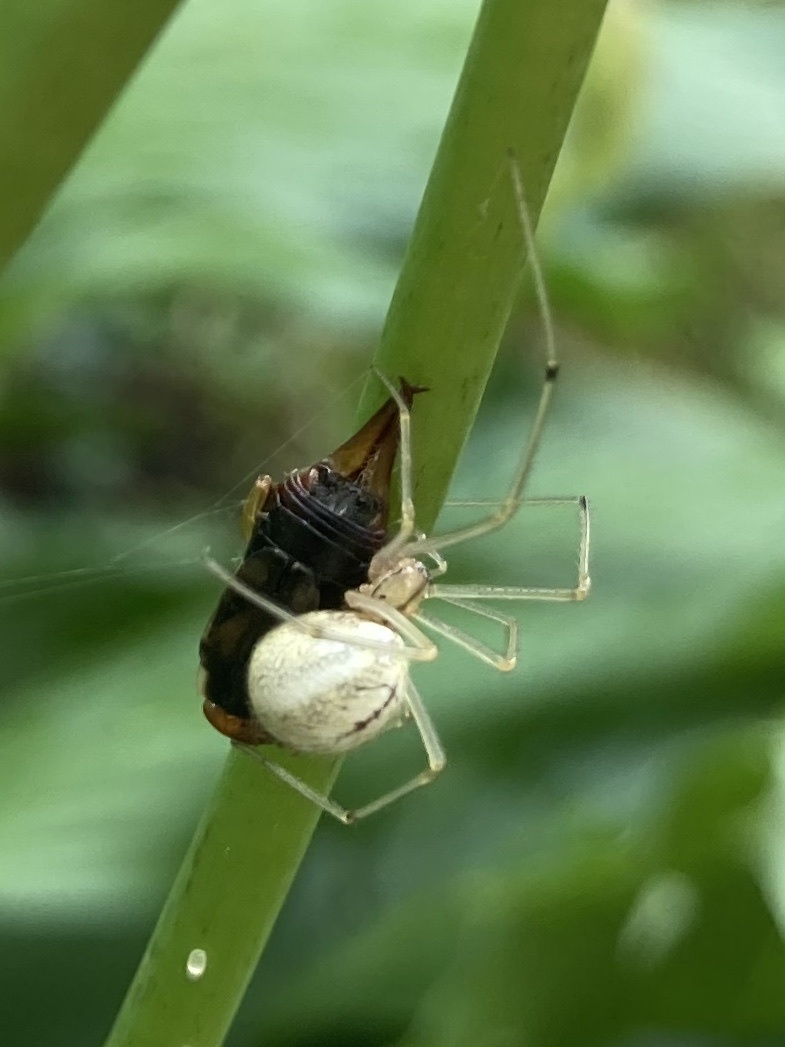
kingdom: Animalia
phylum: Arthropoda
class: Arachnida
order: Araneae
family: Theridiidae
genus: Enoplognatha
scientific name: Enoplognatha ovata
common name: Common candy-striped spider
